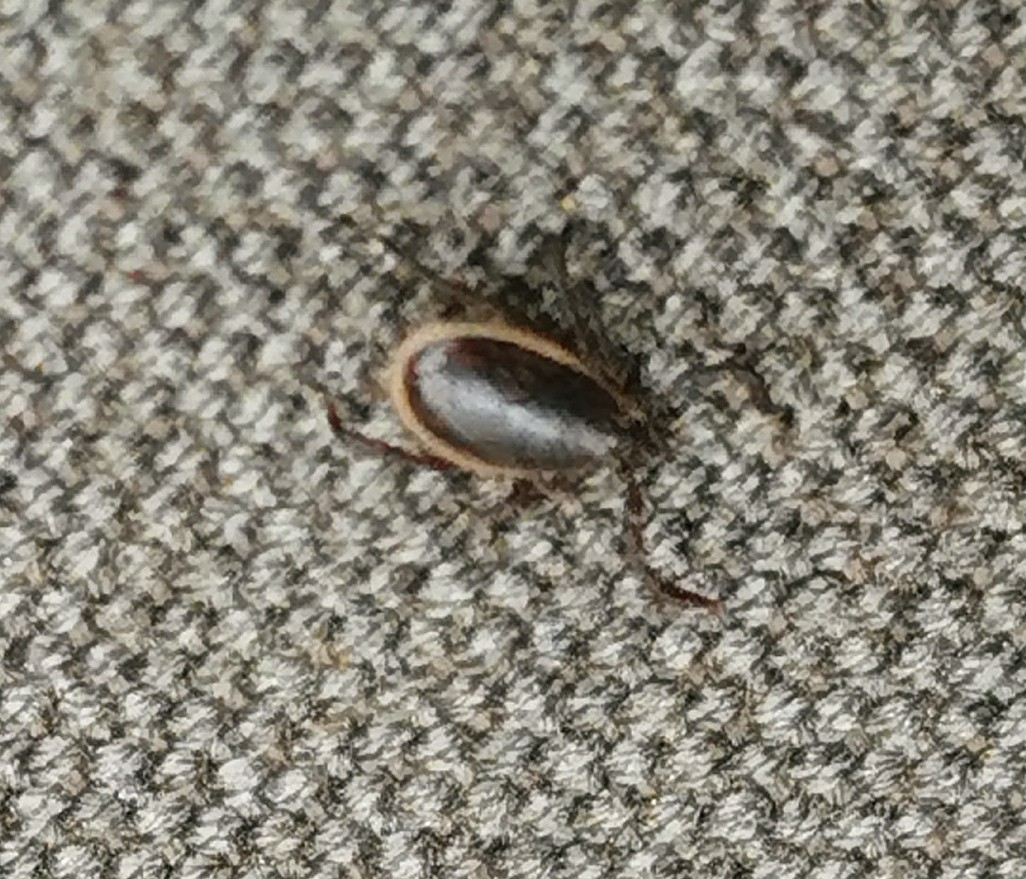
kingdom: Animalia
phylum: Arthropoda
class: Arachnida
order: Ixodida
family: Ixodidae
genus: Ixodes
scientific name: Ixodes scapularis
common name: Black legged tick
